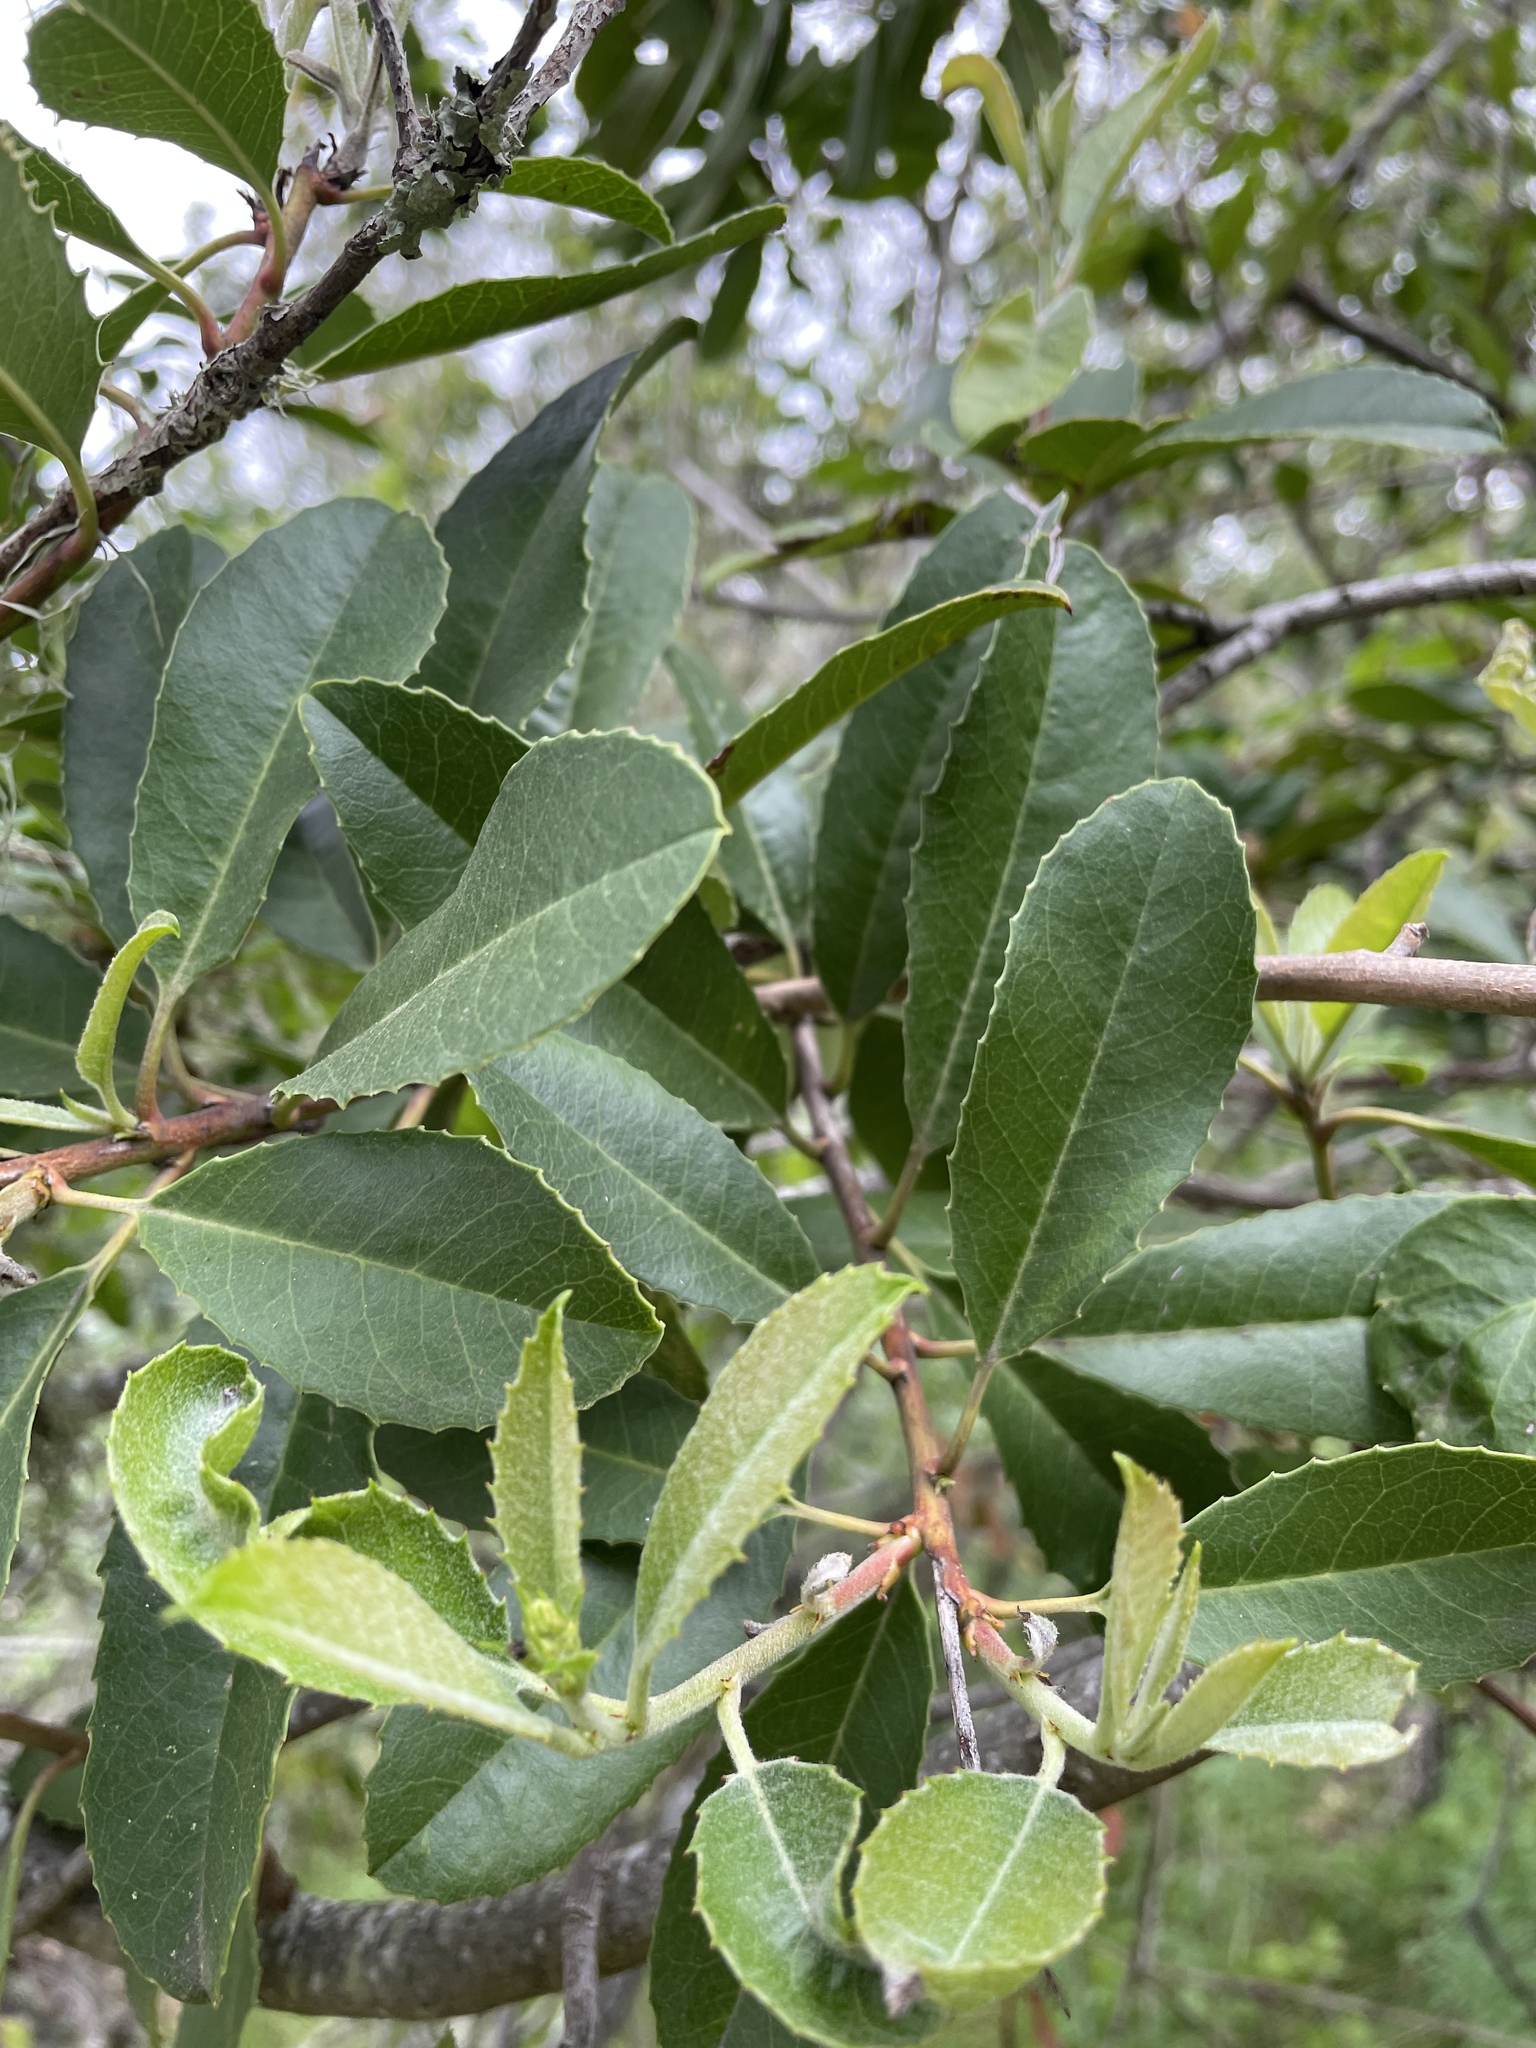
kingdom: Plantae
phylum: Tracheophyta
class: Magnoliopsida
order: Rosales
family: Rosaceae
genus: Heteromeles
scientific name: Heteromeles arbutifolia
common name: California-holly
